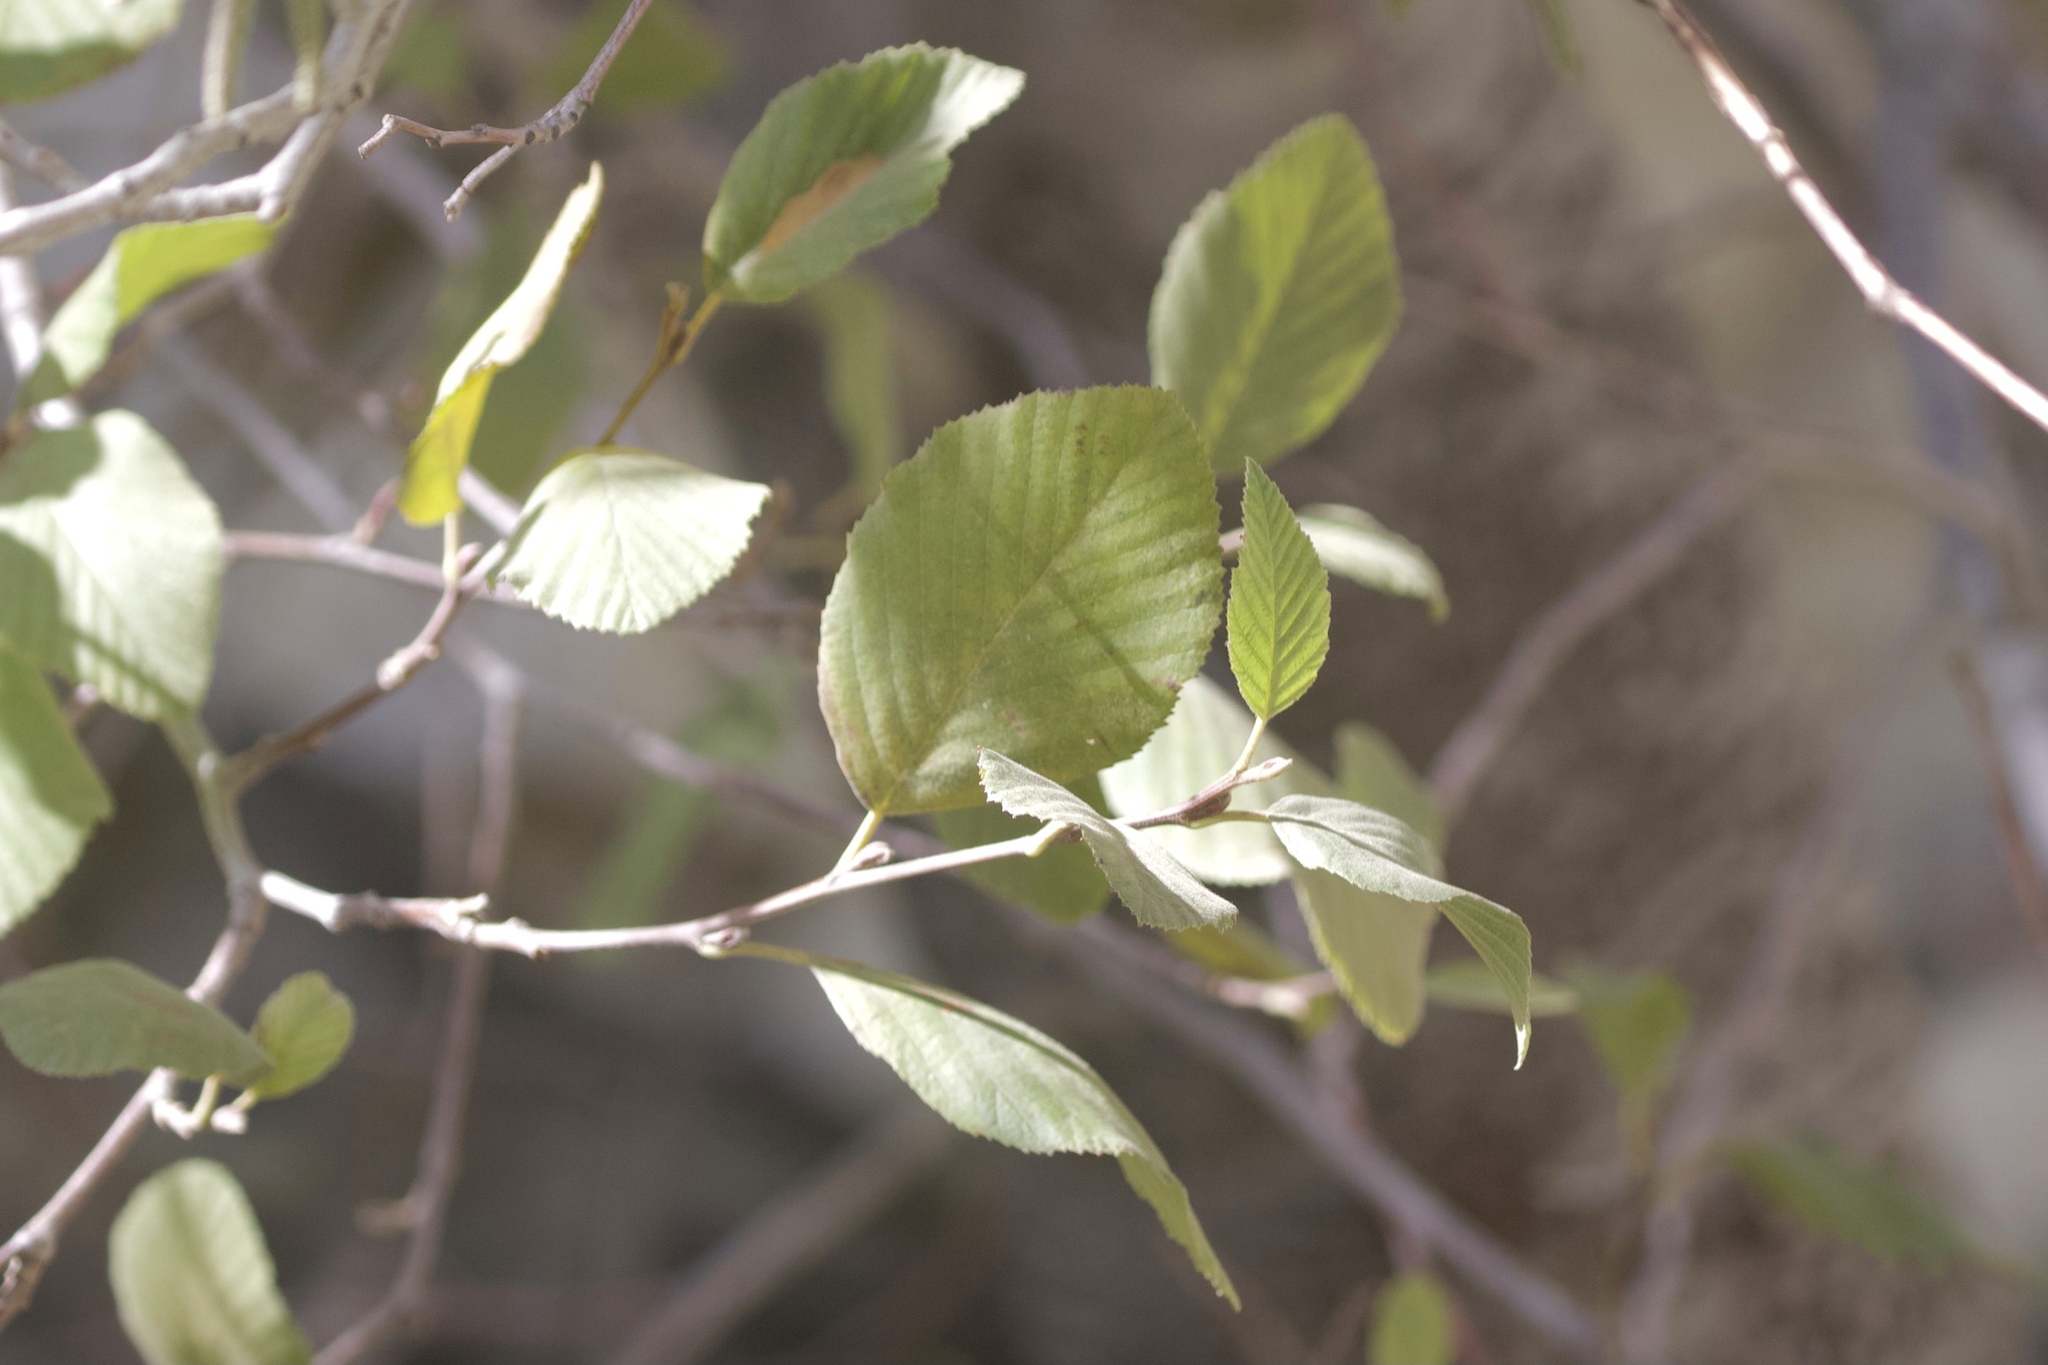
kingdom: Plantae
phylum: Tracheophyta
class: Magnoliopsida
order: Fagales
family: Betulaceae
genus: Alnus
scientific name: Alnus rhombifolia
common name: California alder
